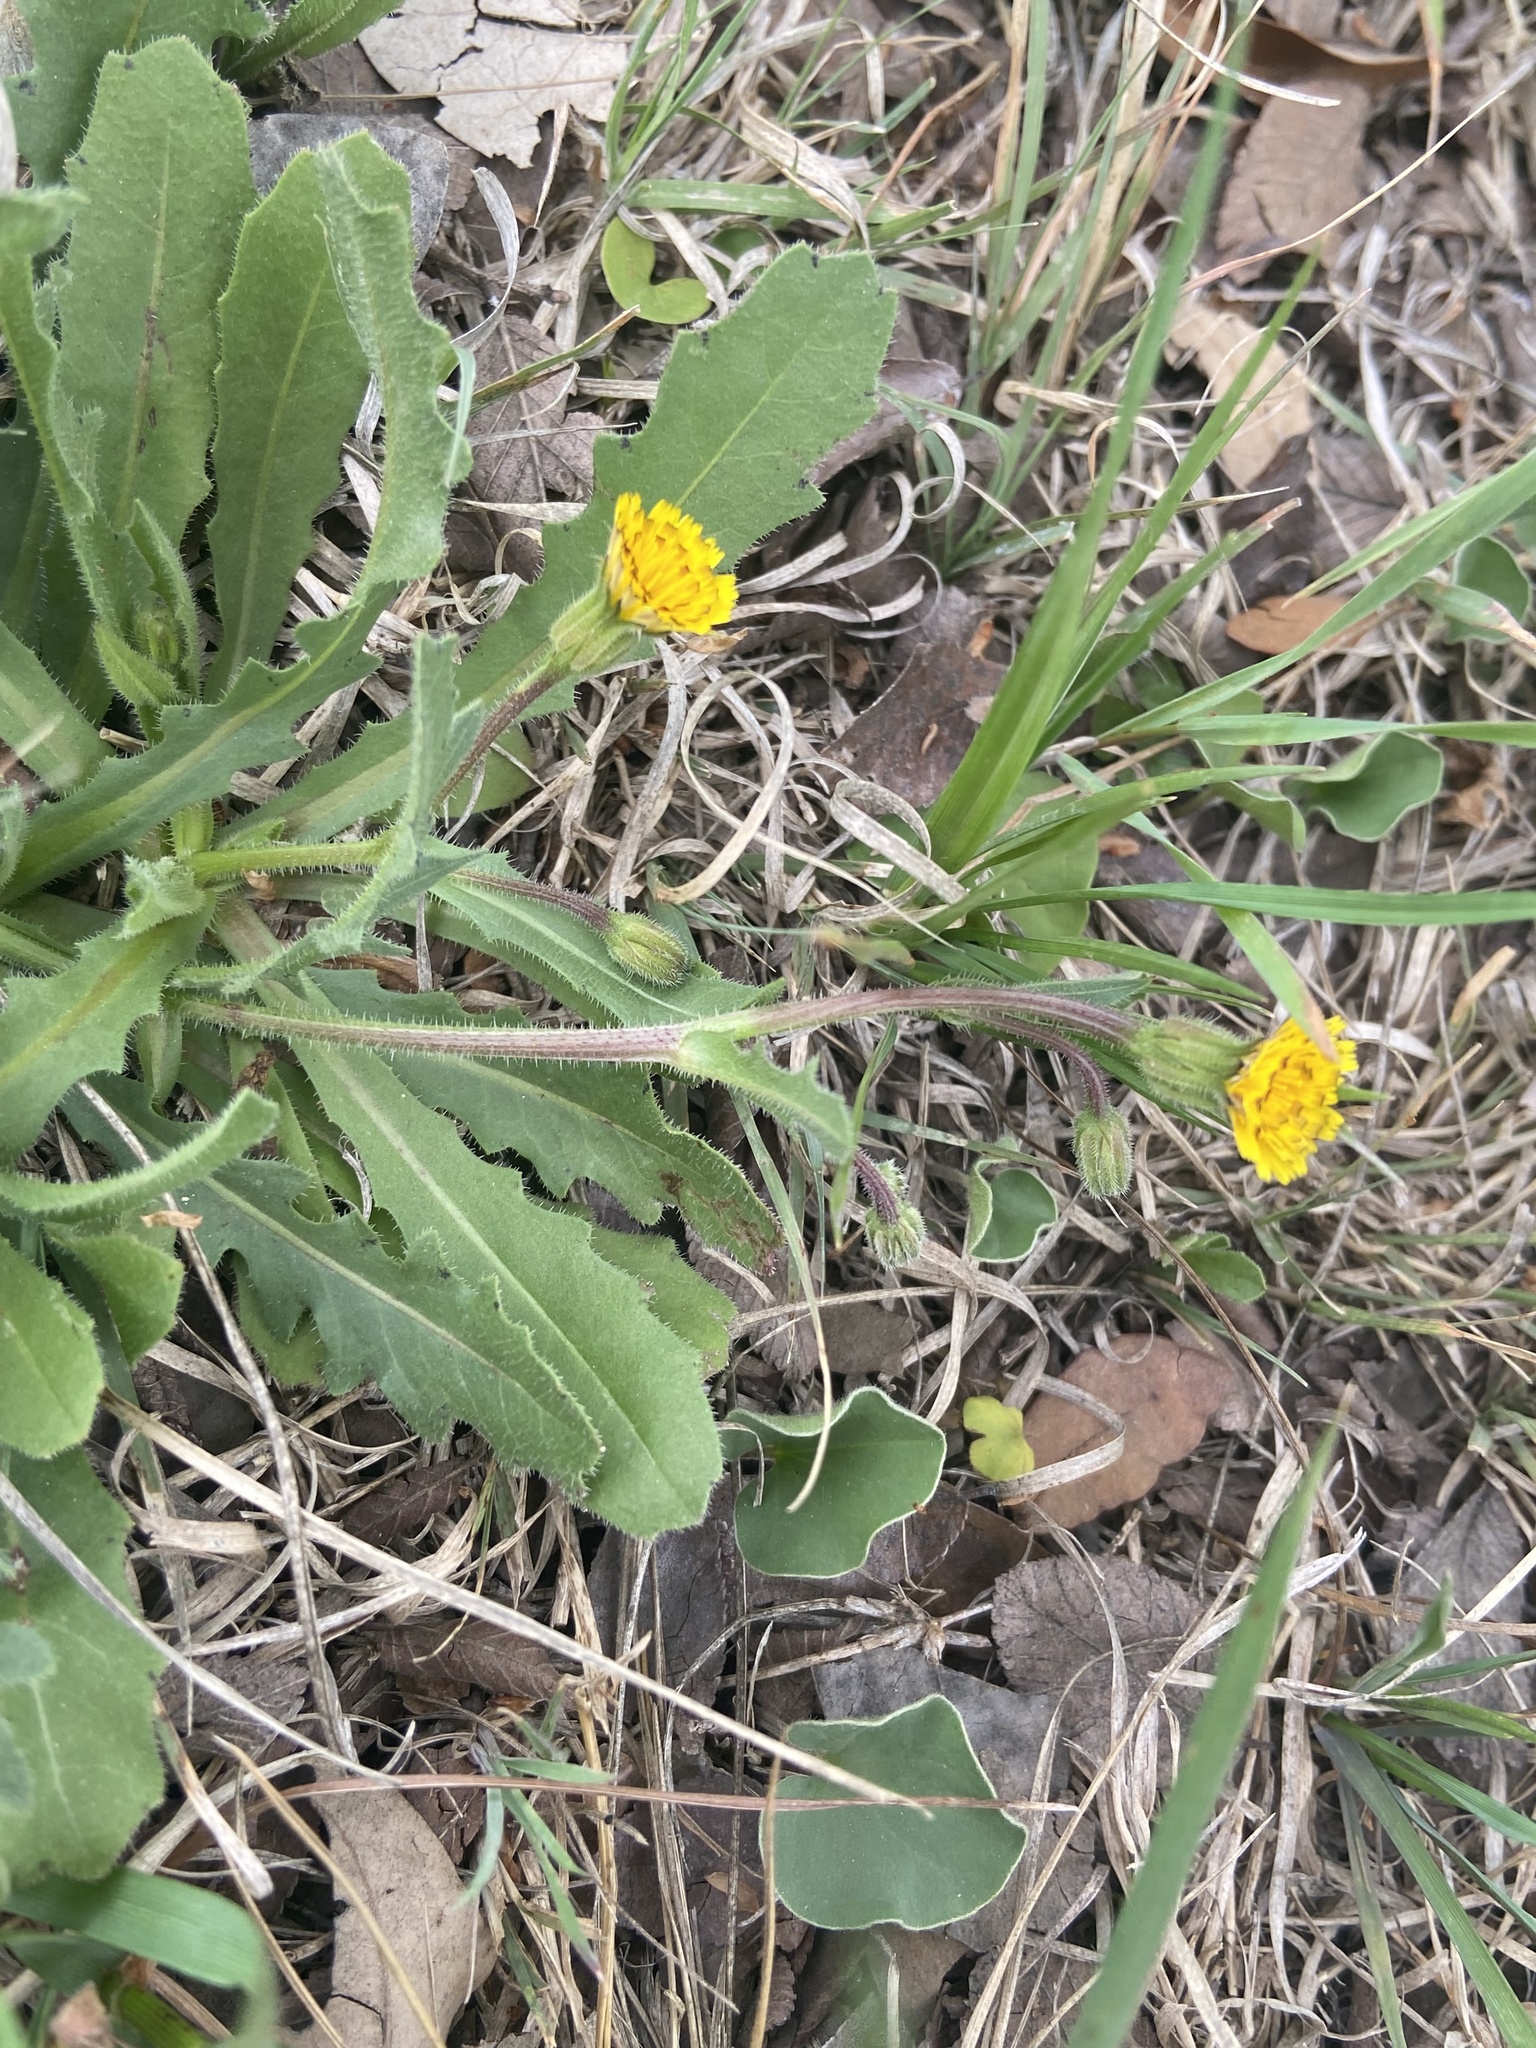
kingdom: Plantae
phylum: Tracheophyta
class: Magnoliopsida
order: Asterales
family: Asteraceae
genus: Hedypnois
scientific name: Hedypnois rhagadioloides
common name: Cretan weed
